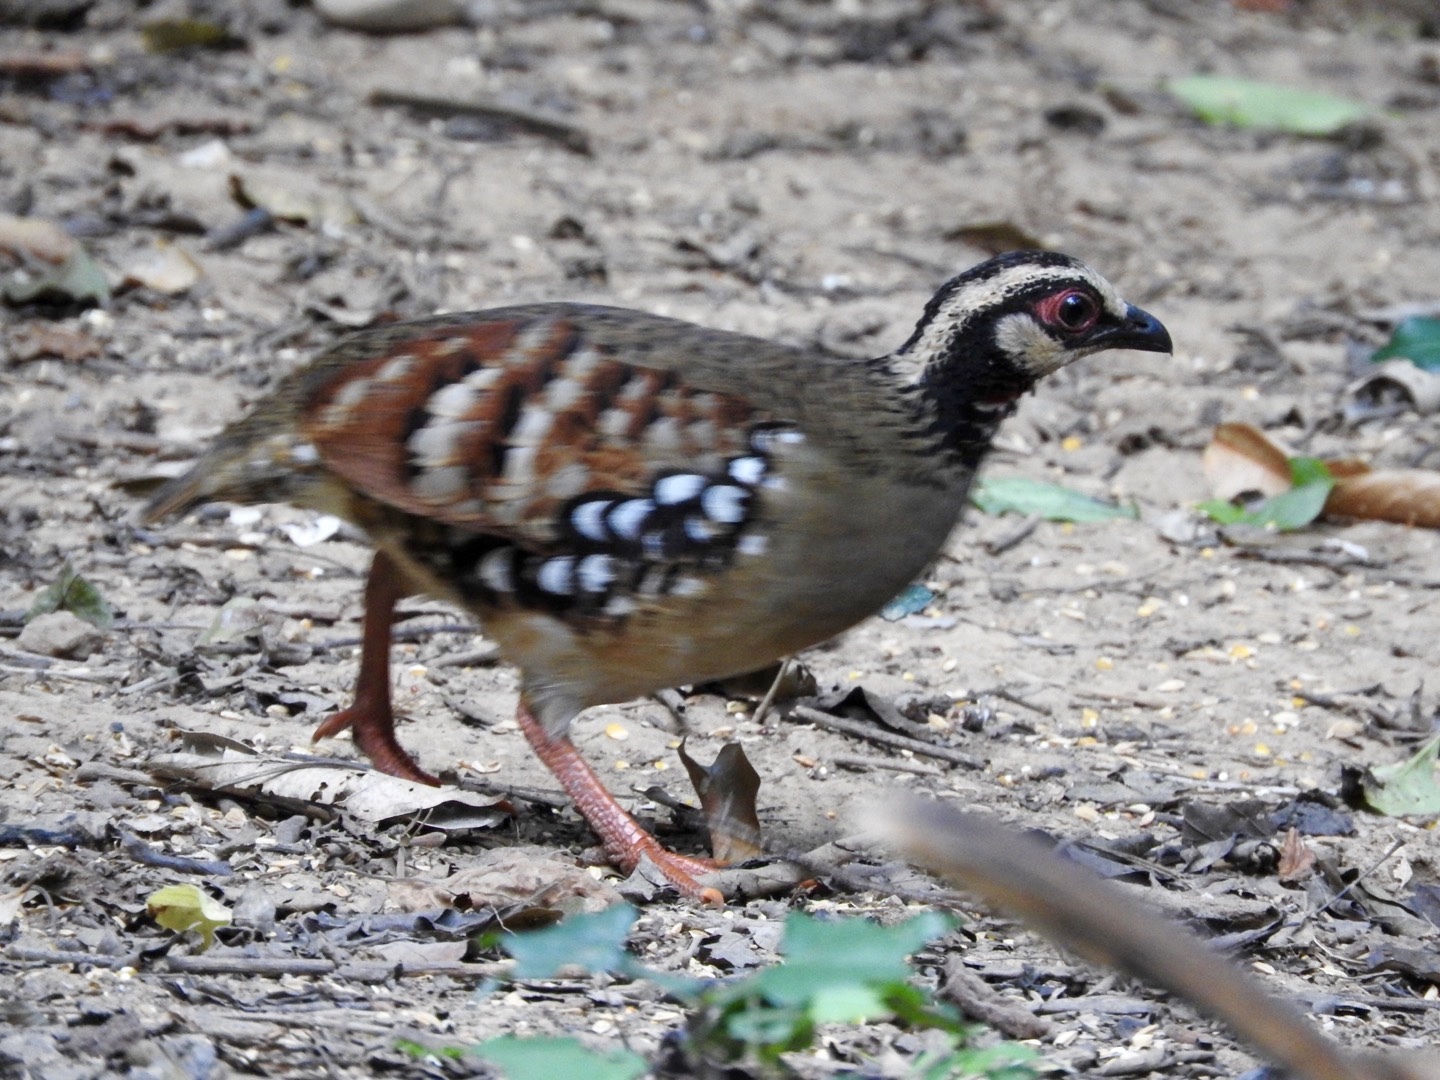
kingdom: Animalia
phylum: Chordata
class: Aves
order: Galliformes
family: Phasianidae
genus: Arborophila
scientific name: Arborophila brunneopectus
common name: Bar-backed partridge
